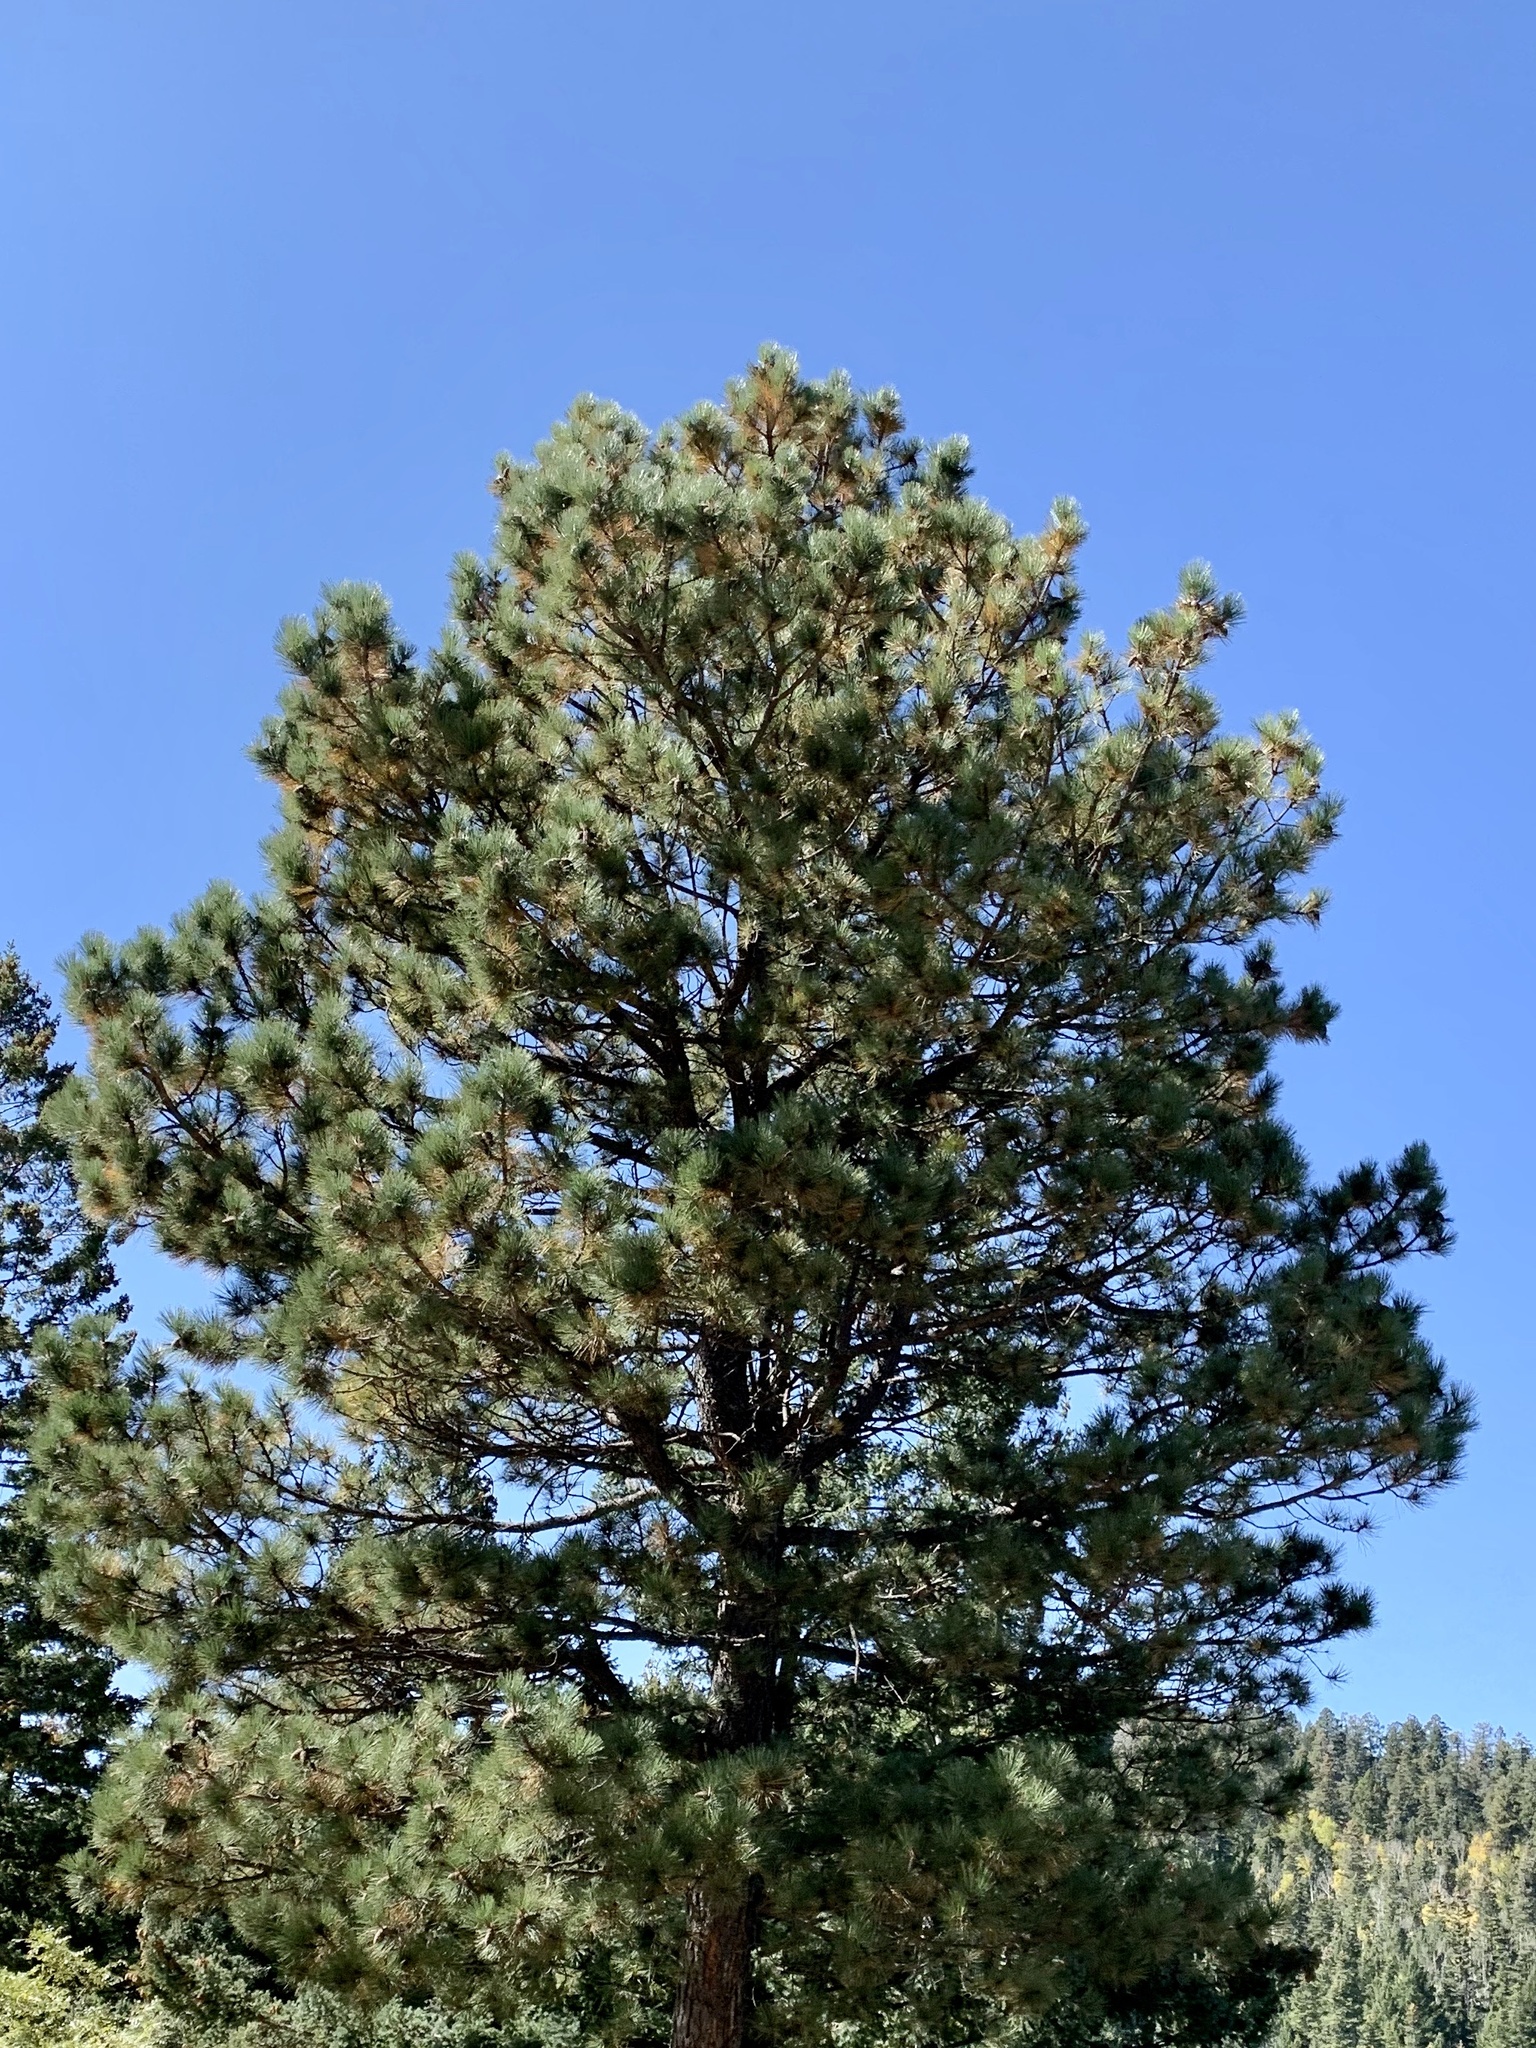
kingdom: Plantae
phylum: Tracheophyta
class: Pinopsida
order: Pinales
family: Pinaceae
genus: Pinus
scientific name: Pinus ponderosa
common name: Western yellow-pine
